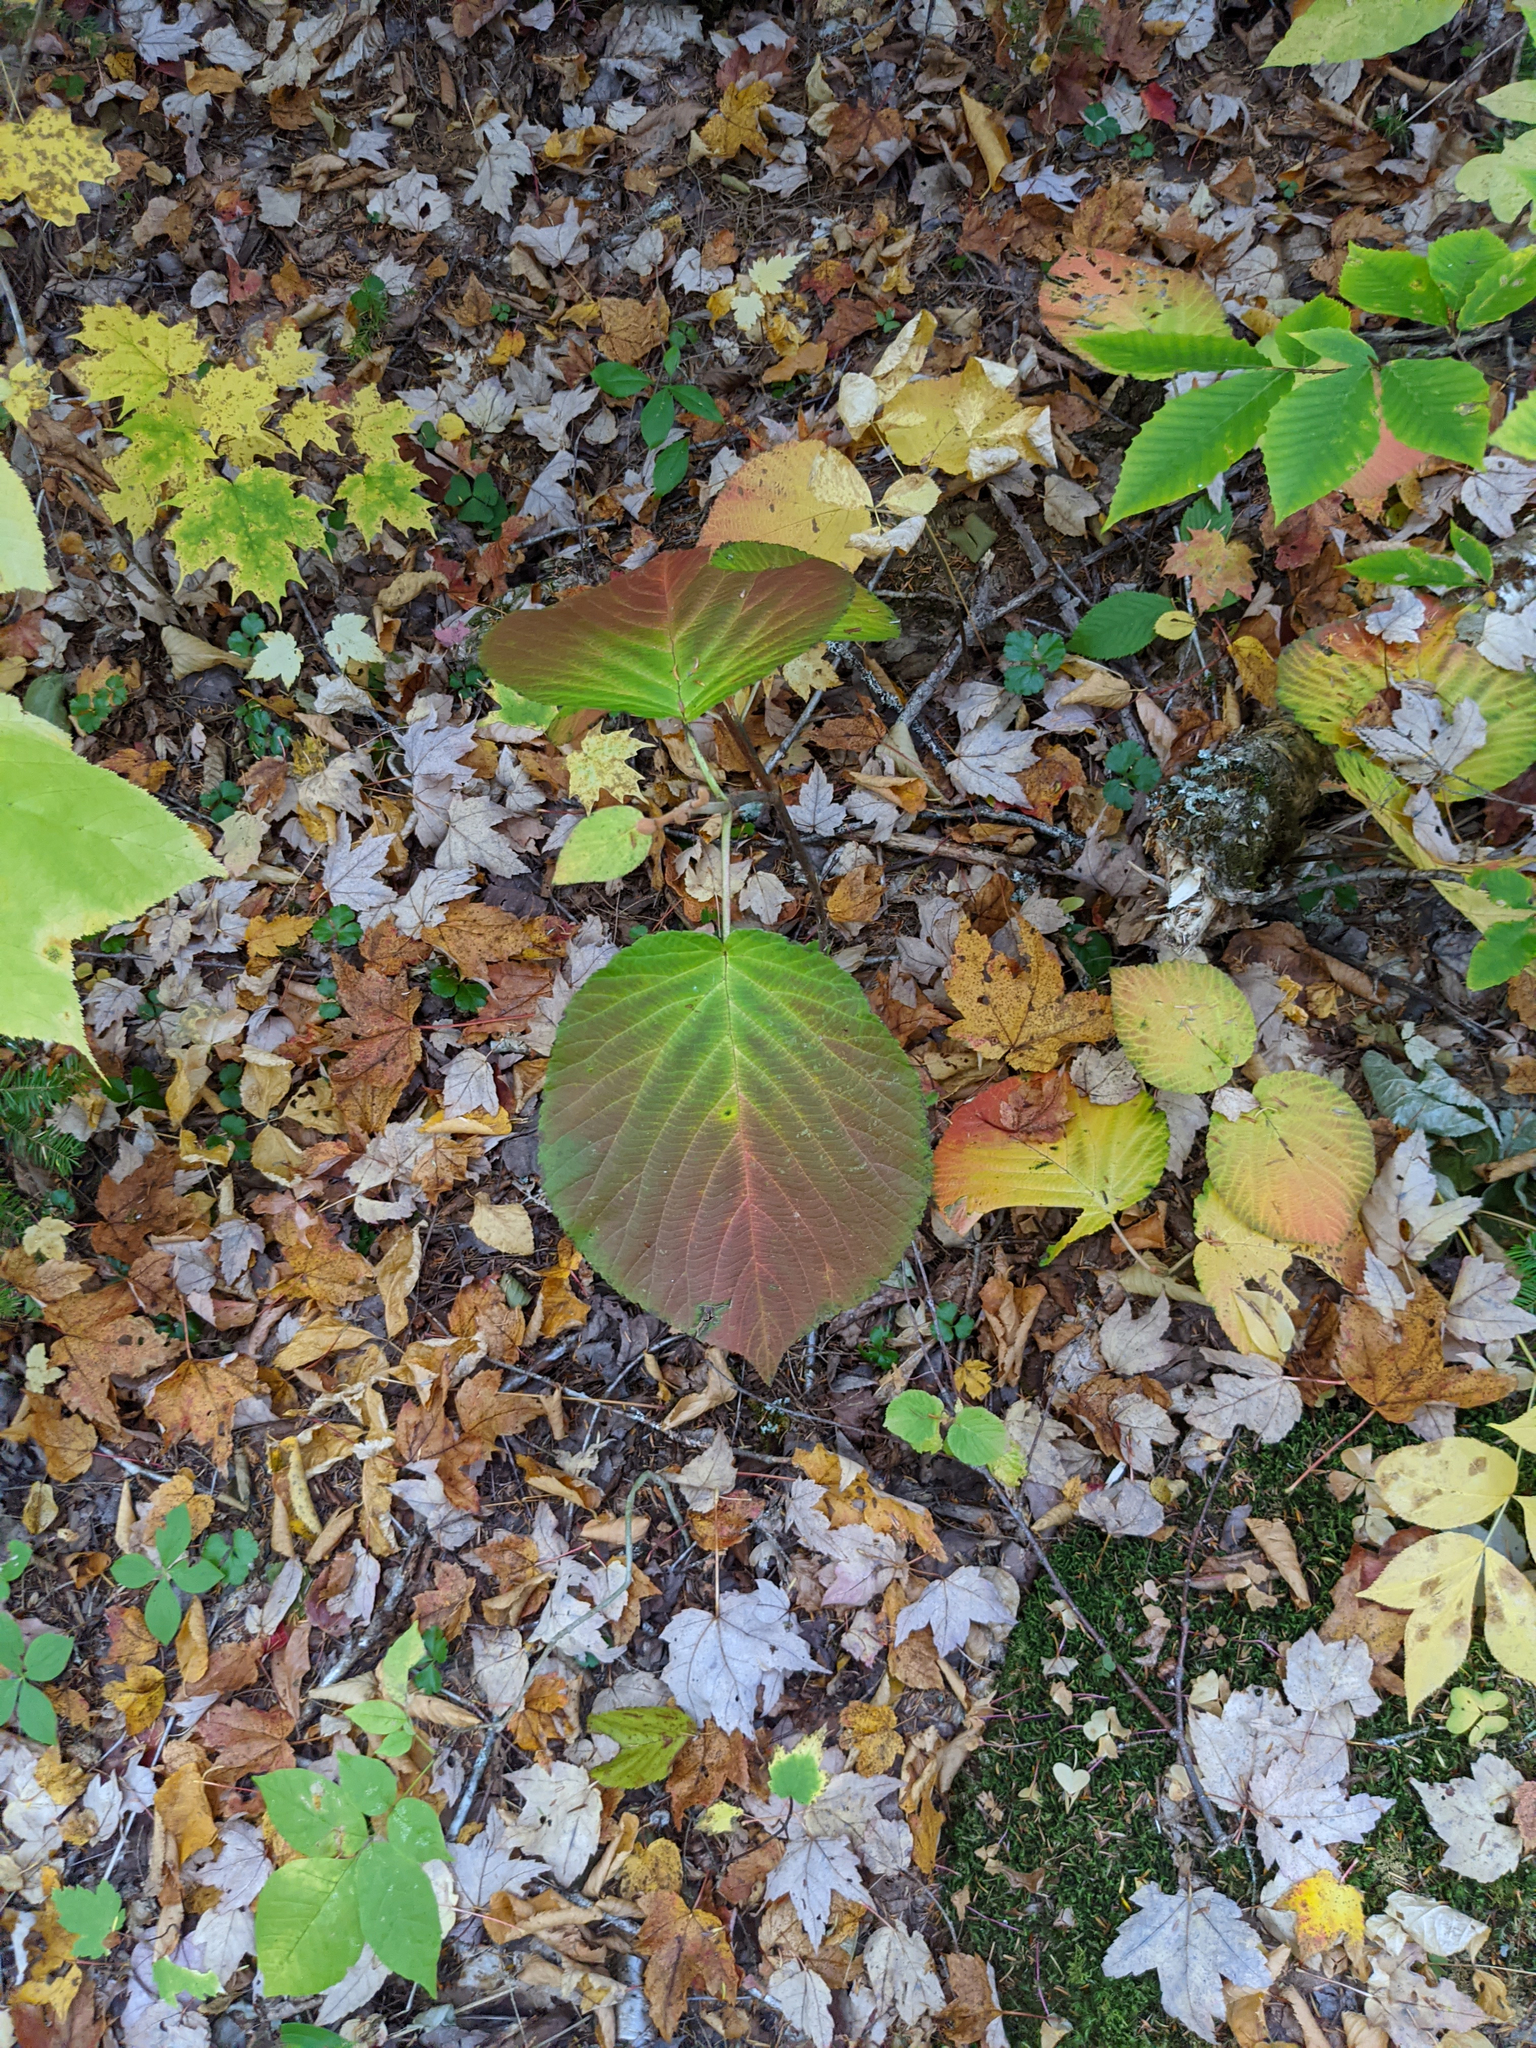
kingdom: Plantae
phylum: Tracheophyta
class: Magnoliopsida
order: Dipsacales
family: Viburnaceae
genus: Viburnum
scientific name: Viburnum lantanoides
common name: Hobblebush
